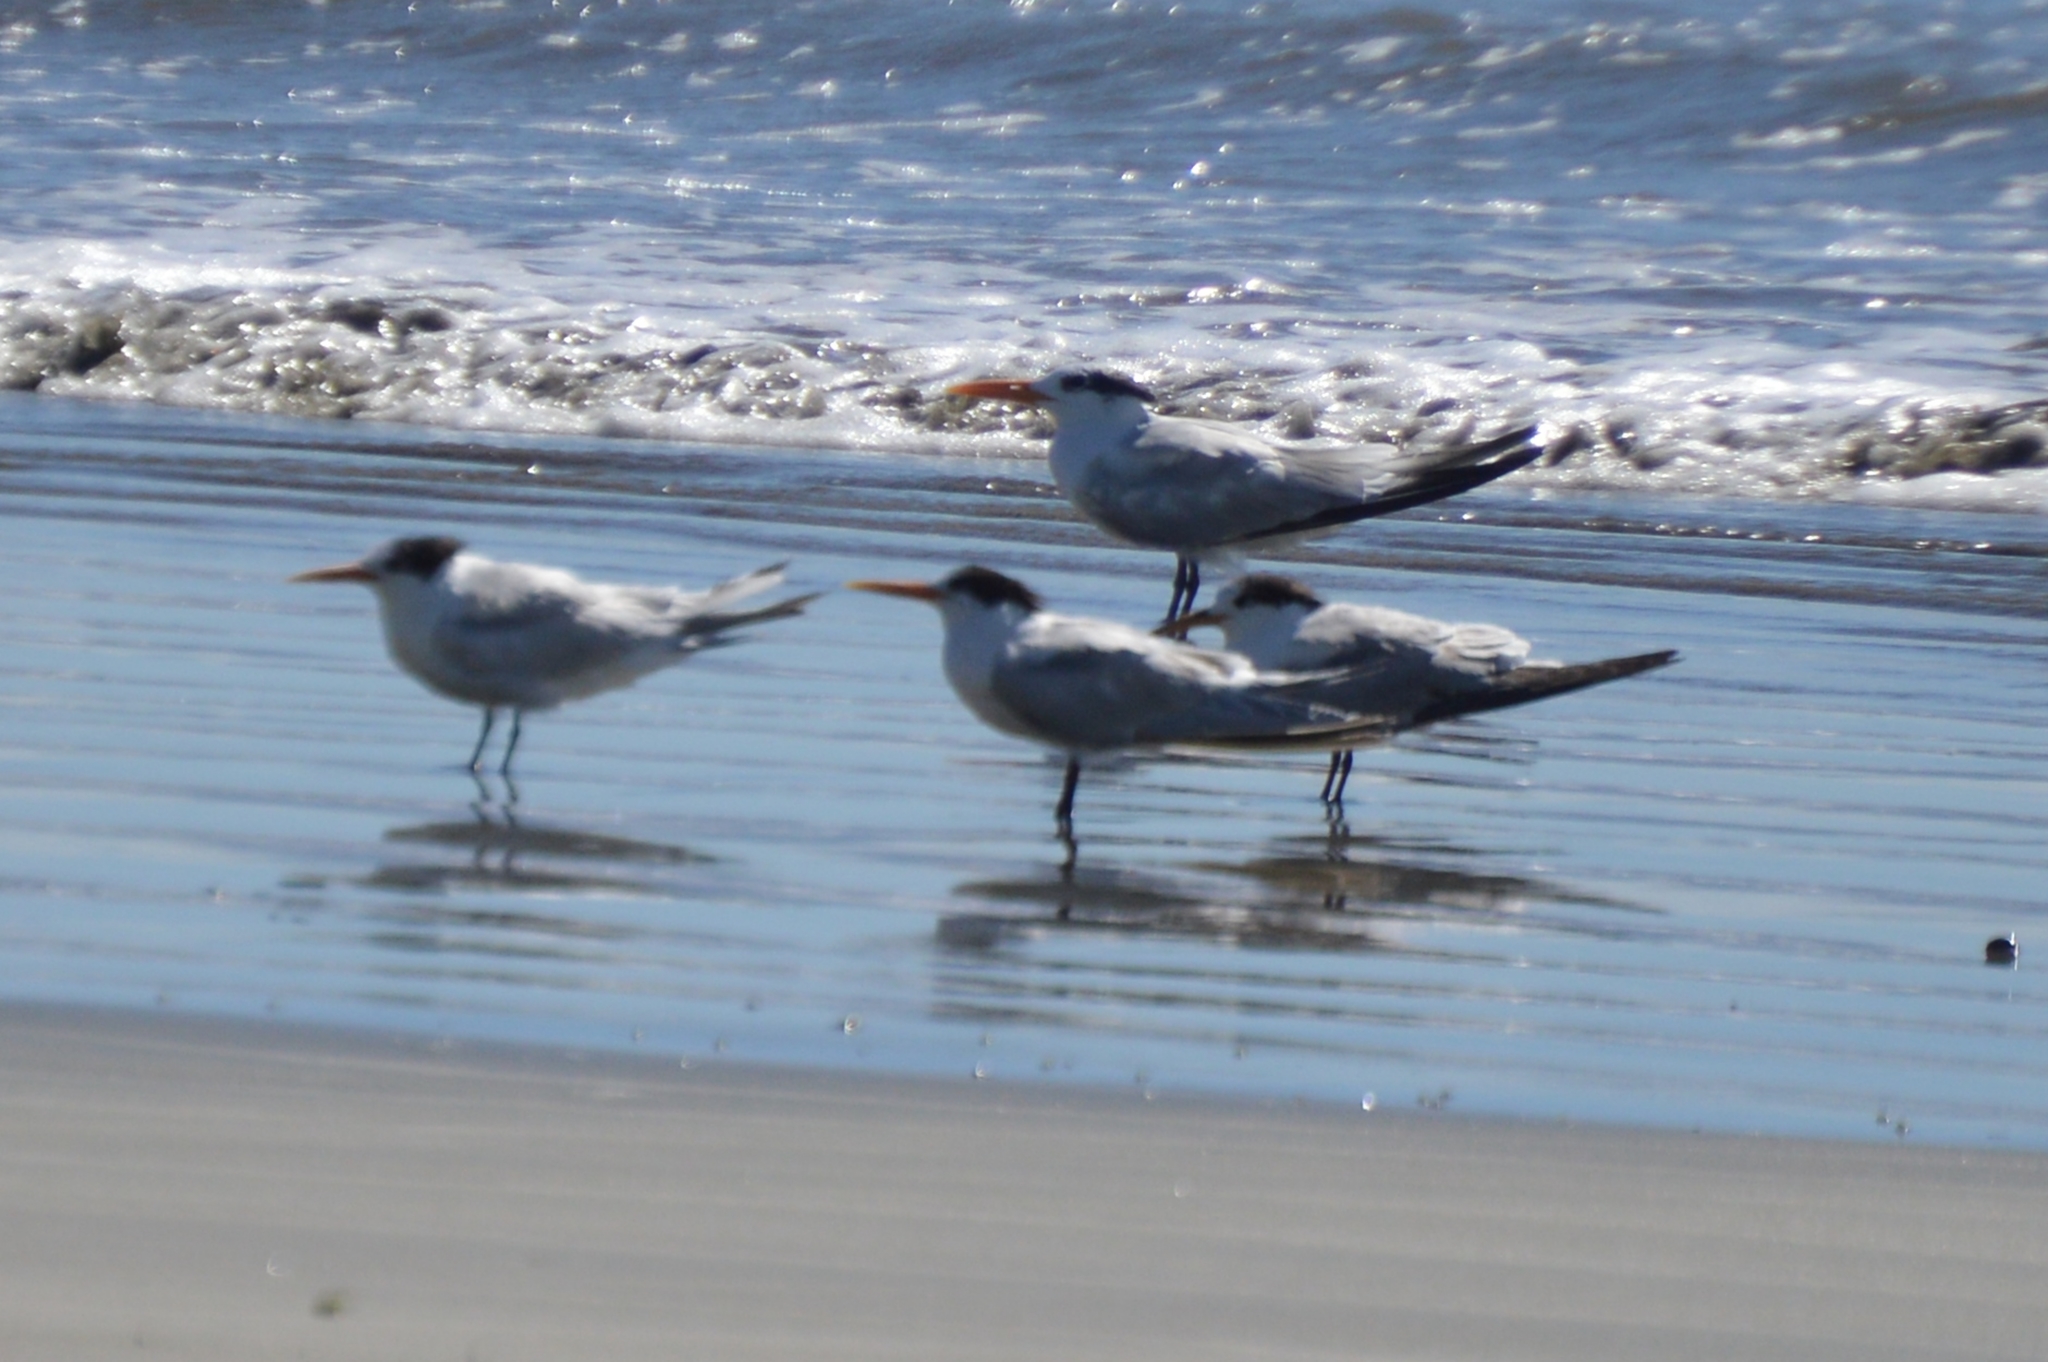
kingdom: Animalia
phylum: Chordata
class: Aves
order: Charadriiformes
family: Laridae
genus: Thalasseus
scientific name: Thalasseus elegans
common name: Elegant tern
